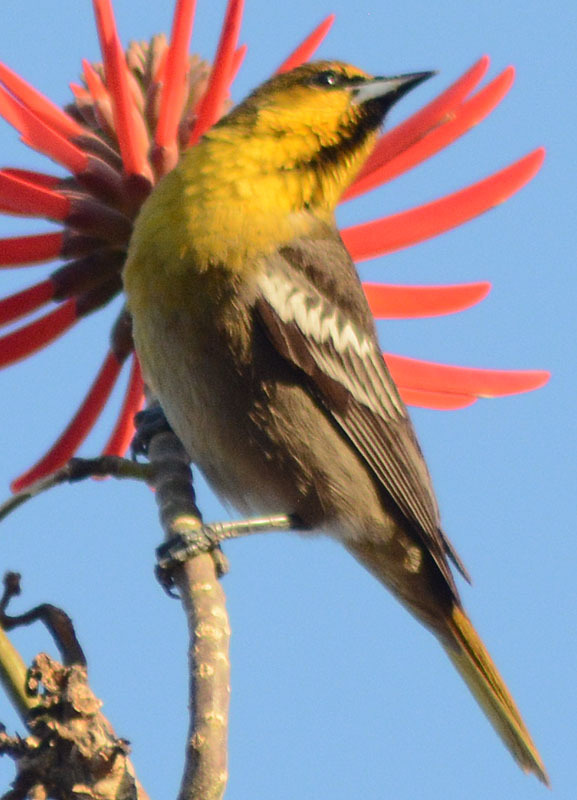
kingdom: Animalia
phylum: Chordata
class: Aves
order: Passeriformes
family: Icteridae
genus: Icterus
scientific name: Icterus abeillei
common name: Black-backed oriole
